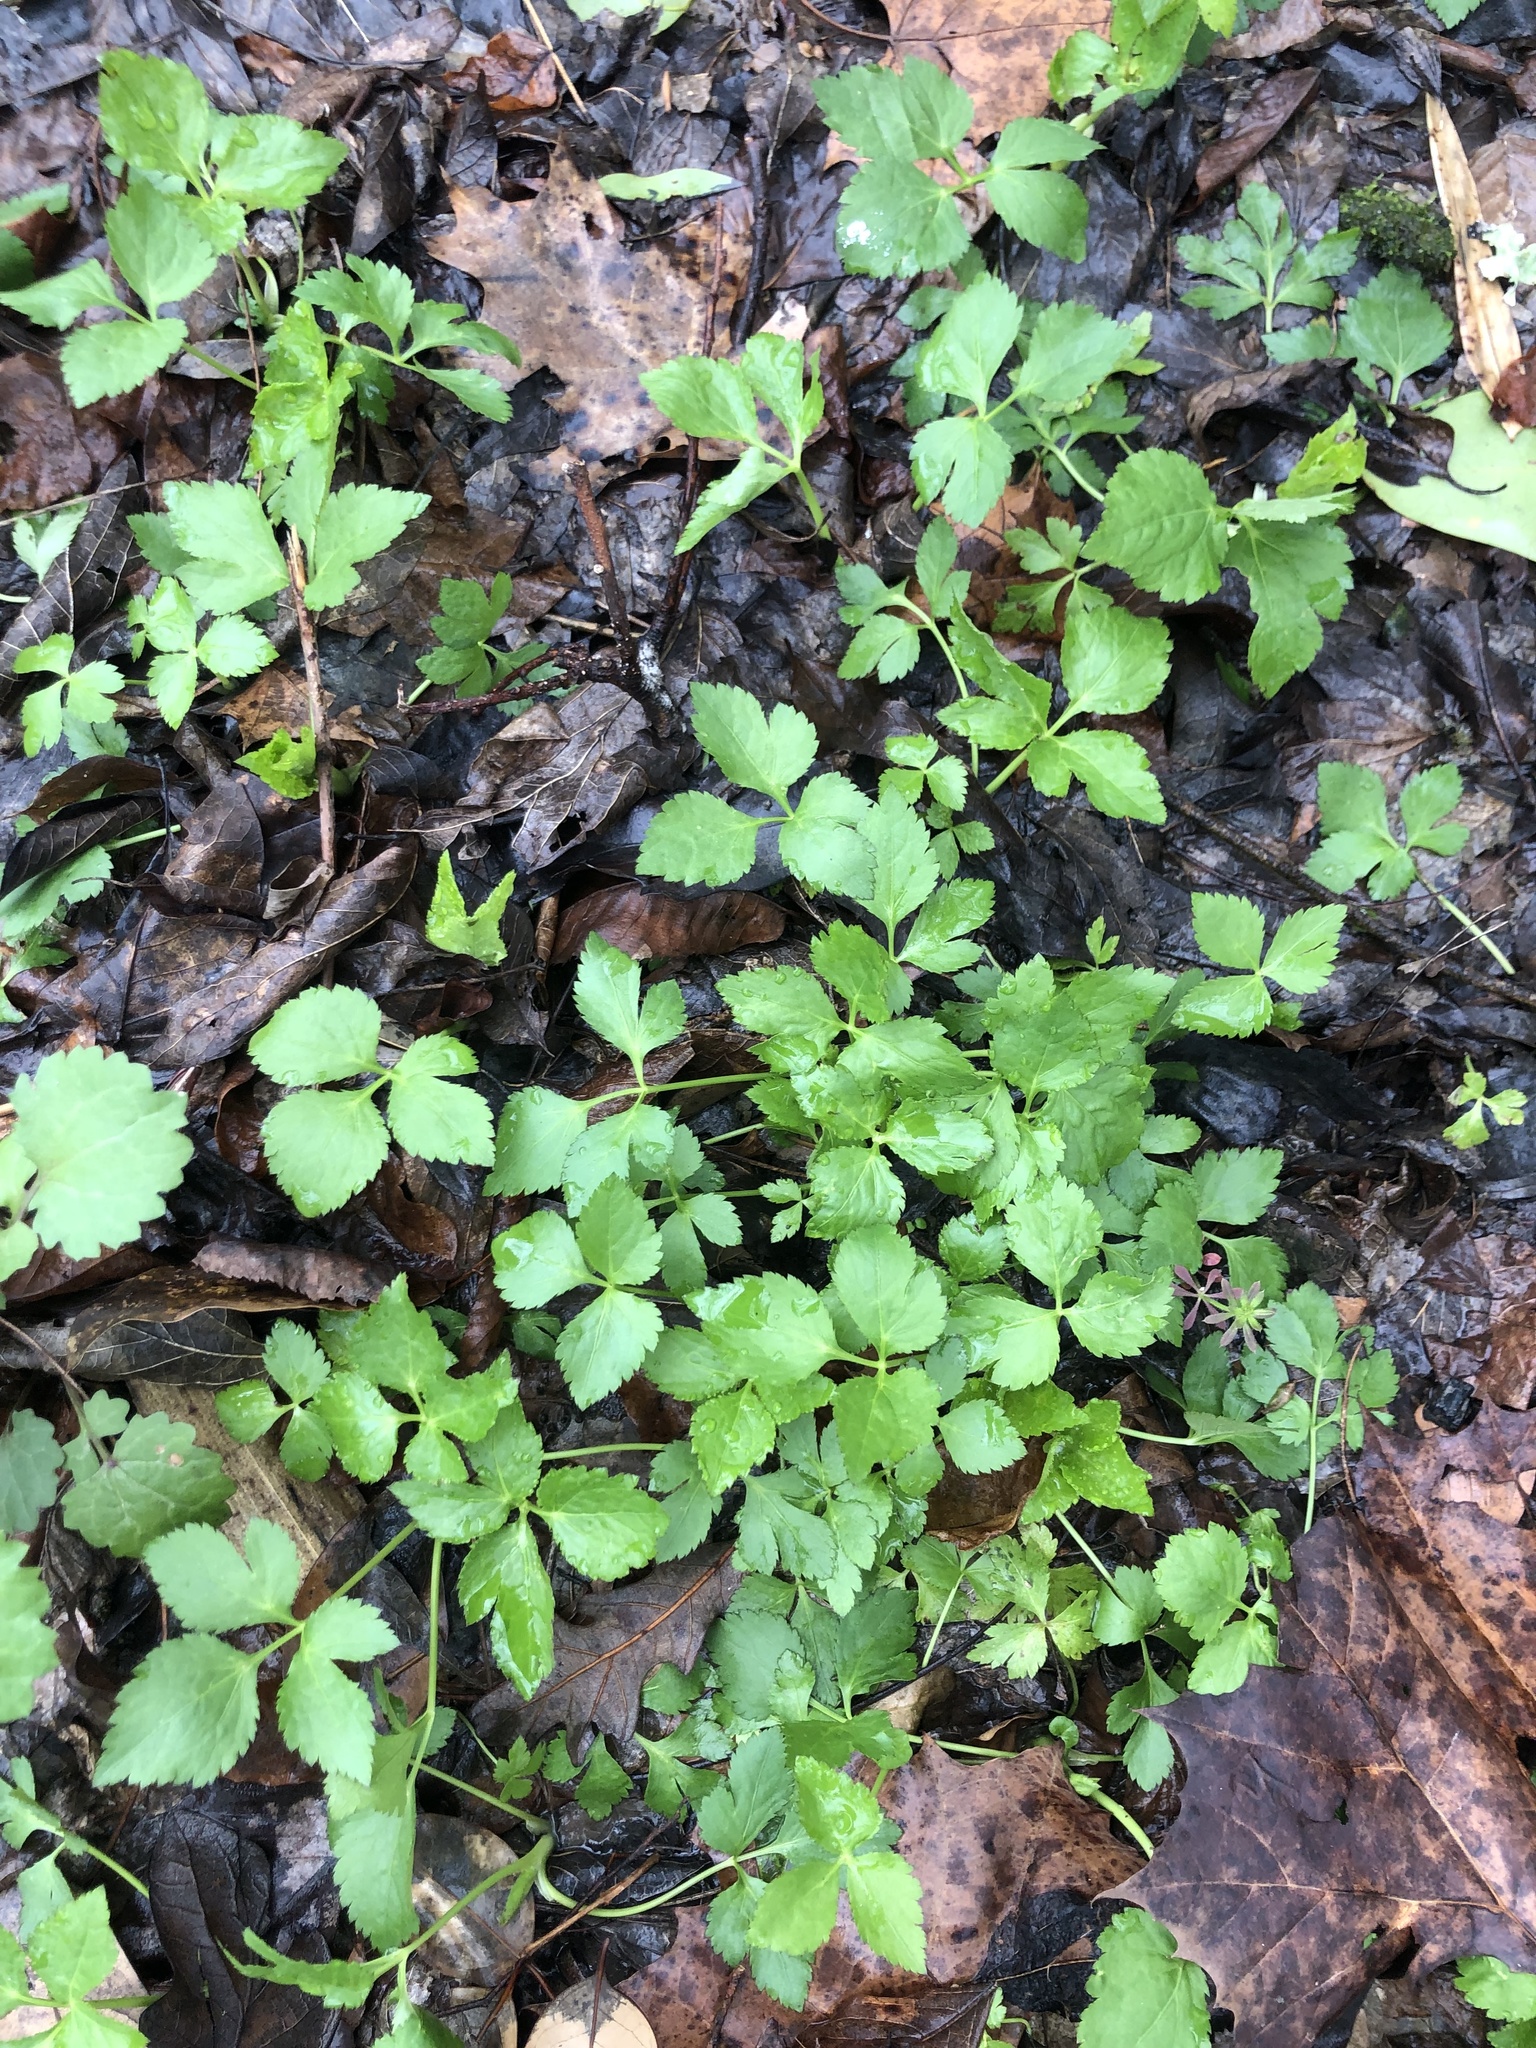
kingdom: Plantae
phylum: Tracheophyta
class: Magnoliopsida
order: Apiales
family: Apiaceae
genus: Cryptotaenia
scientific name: Cryptotaenia canadensis
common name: Honewort
